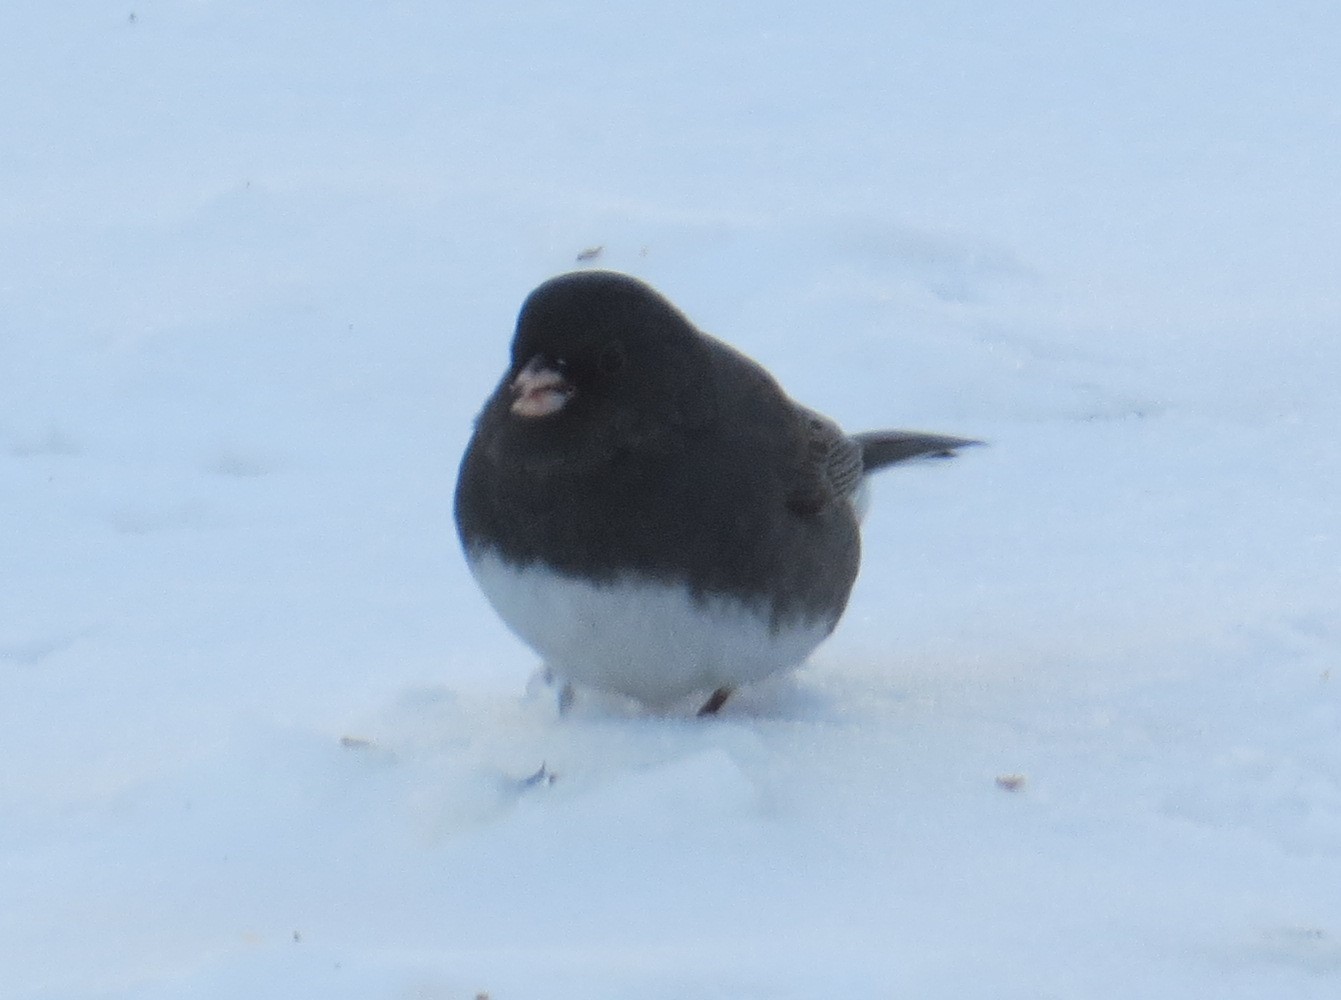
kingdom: Animalia
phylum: Chordata
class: Aves
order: Passeriformes
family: Passerellidae
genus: Junco
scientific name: Junco hyemalis
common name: Dark-eyed junco
